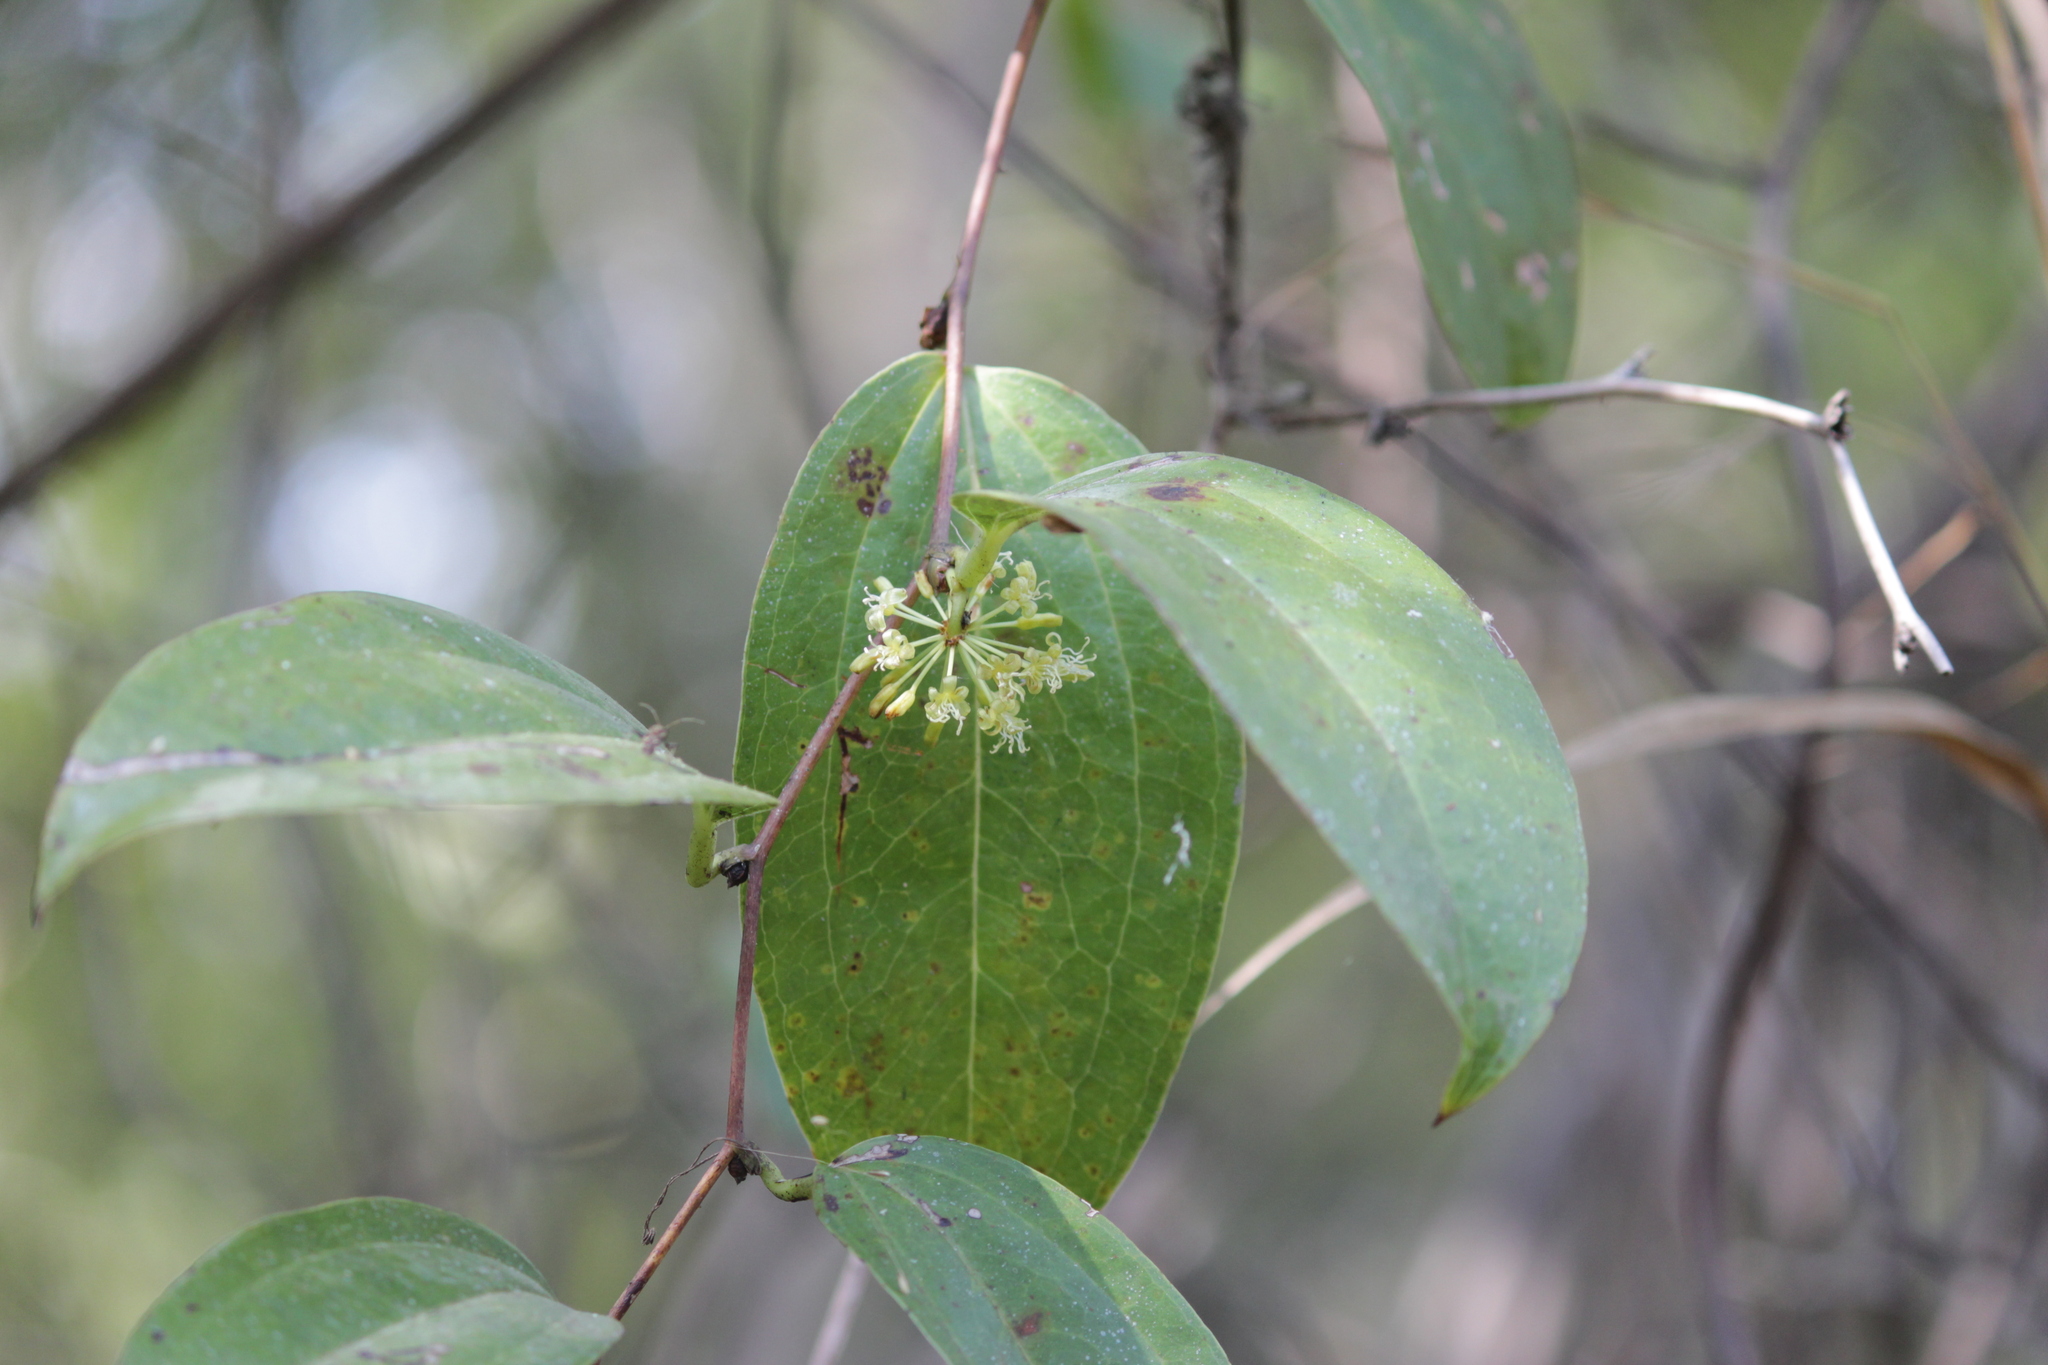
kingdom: Plantae
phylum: Tracheophyta
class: Liliopsida
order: Liliales
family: Smilacaceae
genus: Smilax
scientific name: Smilax anceps
